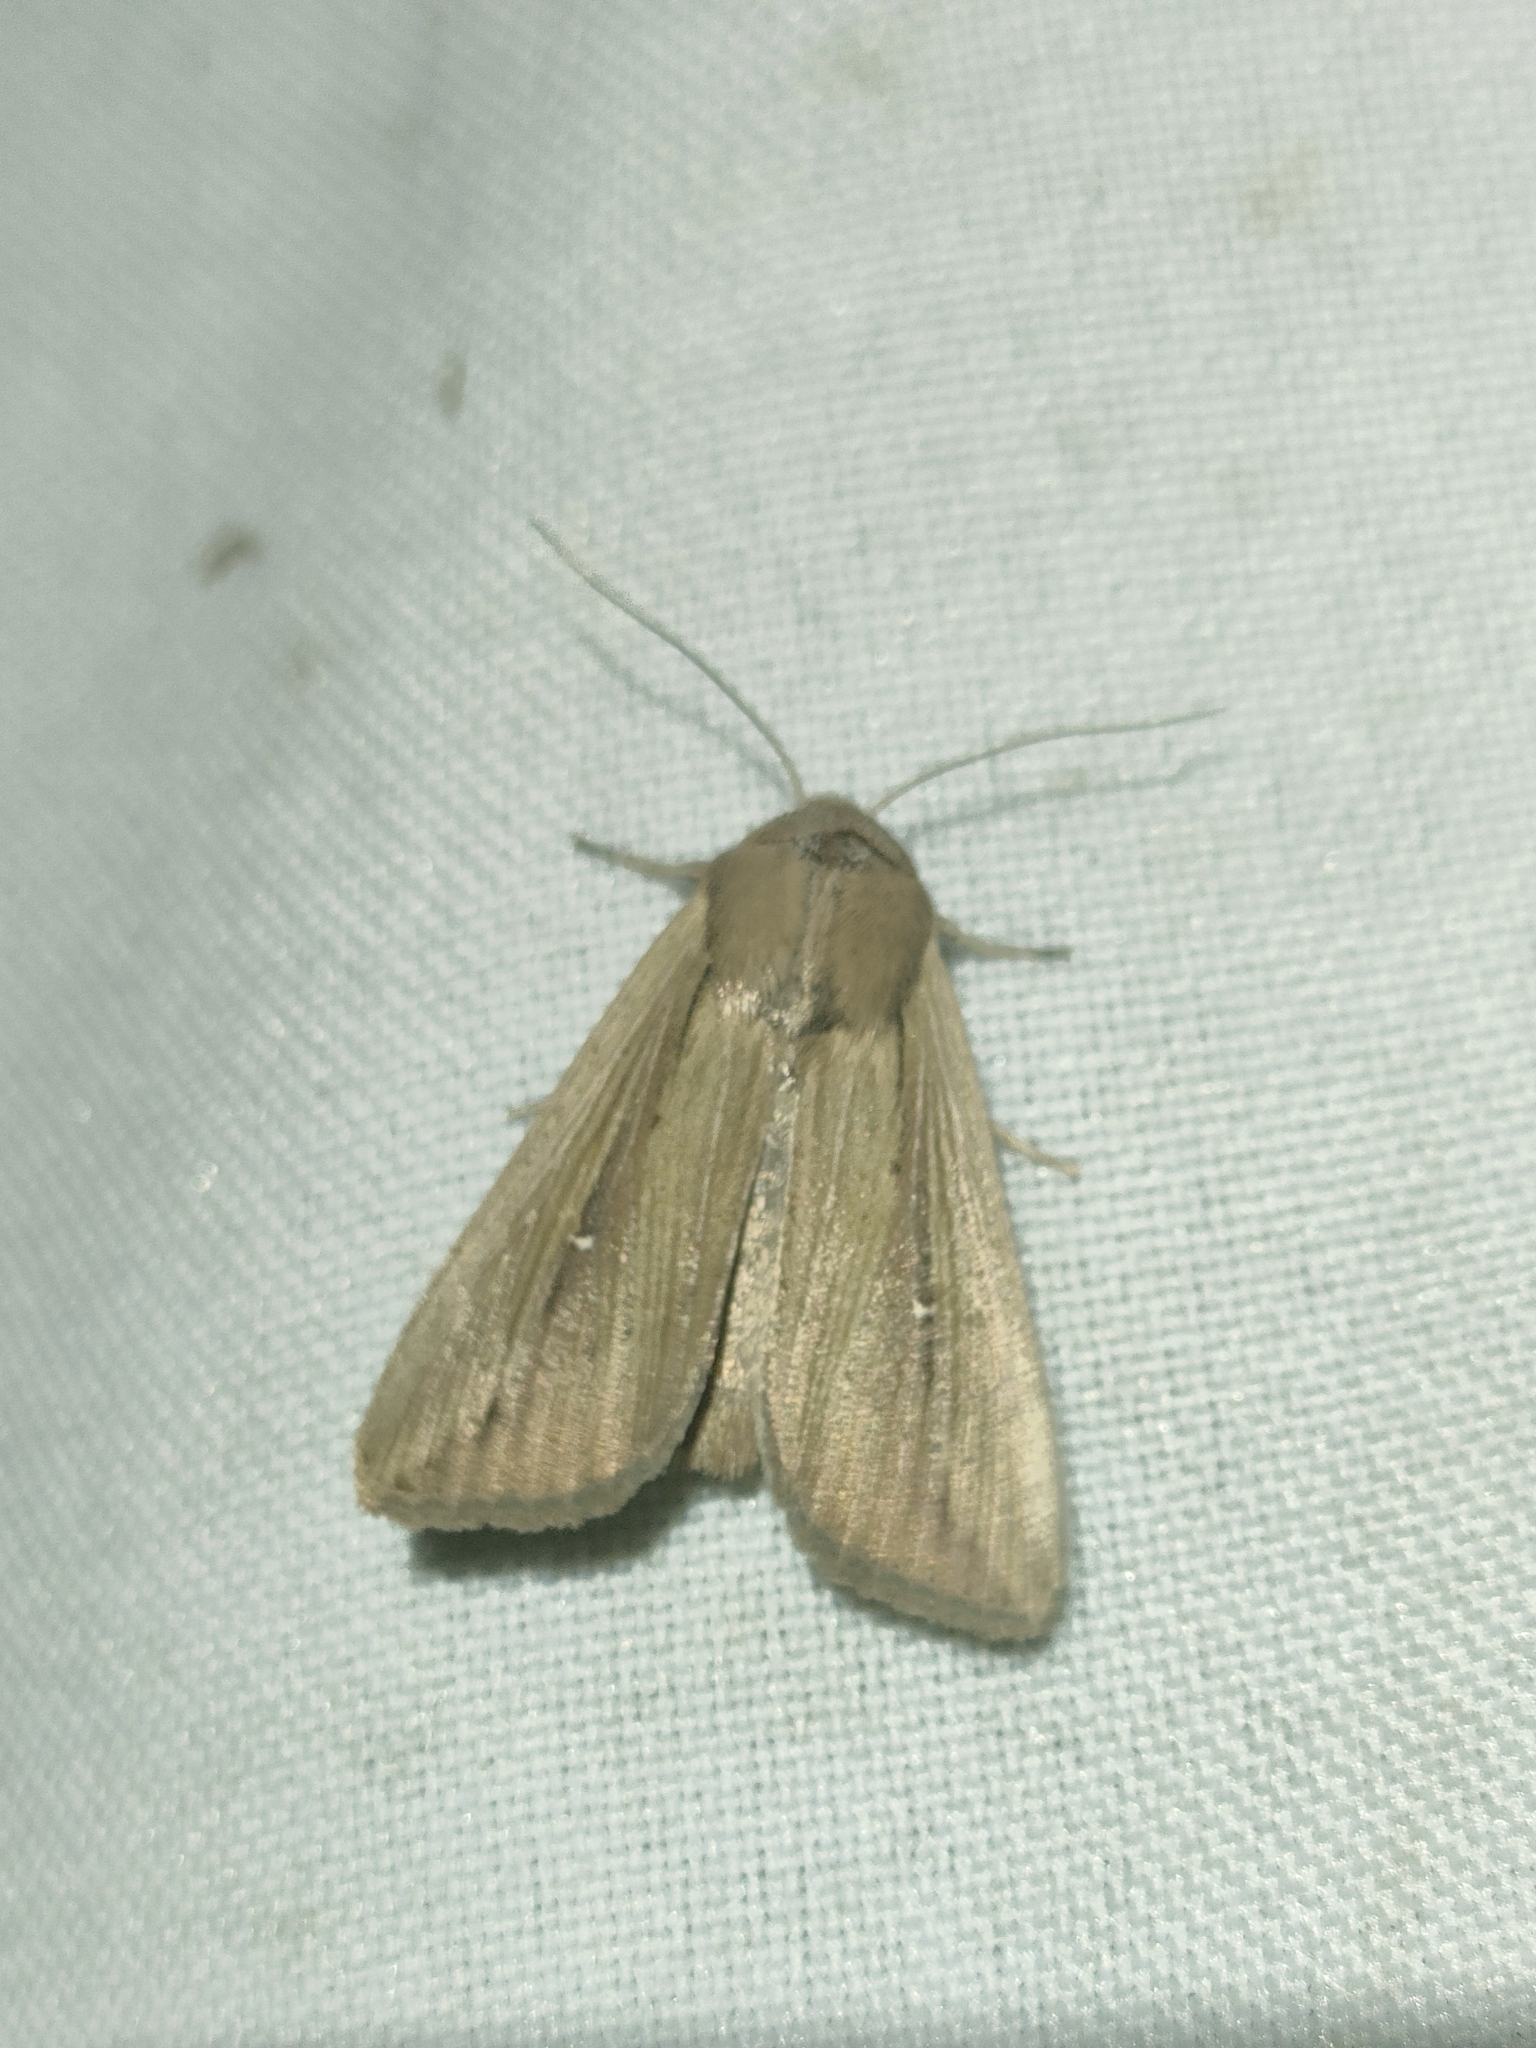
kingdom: Animalia
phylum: Arthropoda
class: Insecta
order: Lepidoptera
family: Noctuidae
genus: Leucania
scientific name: Leucania loreyi
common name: The cosmopolitan
